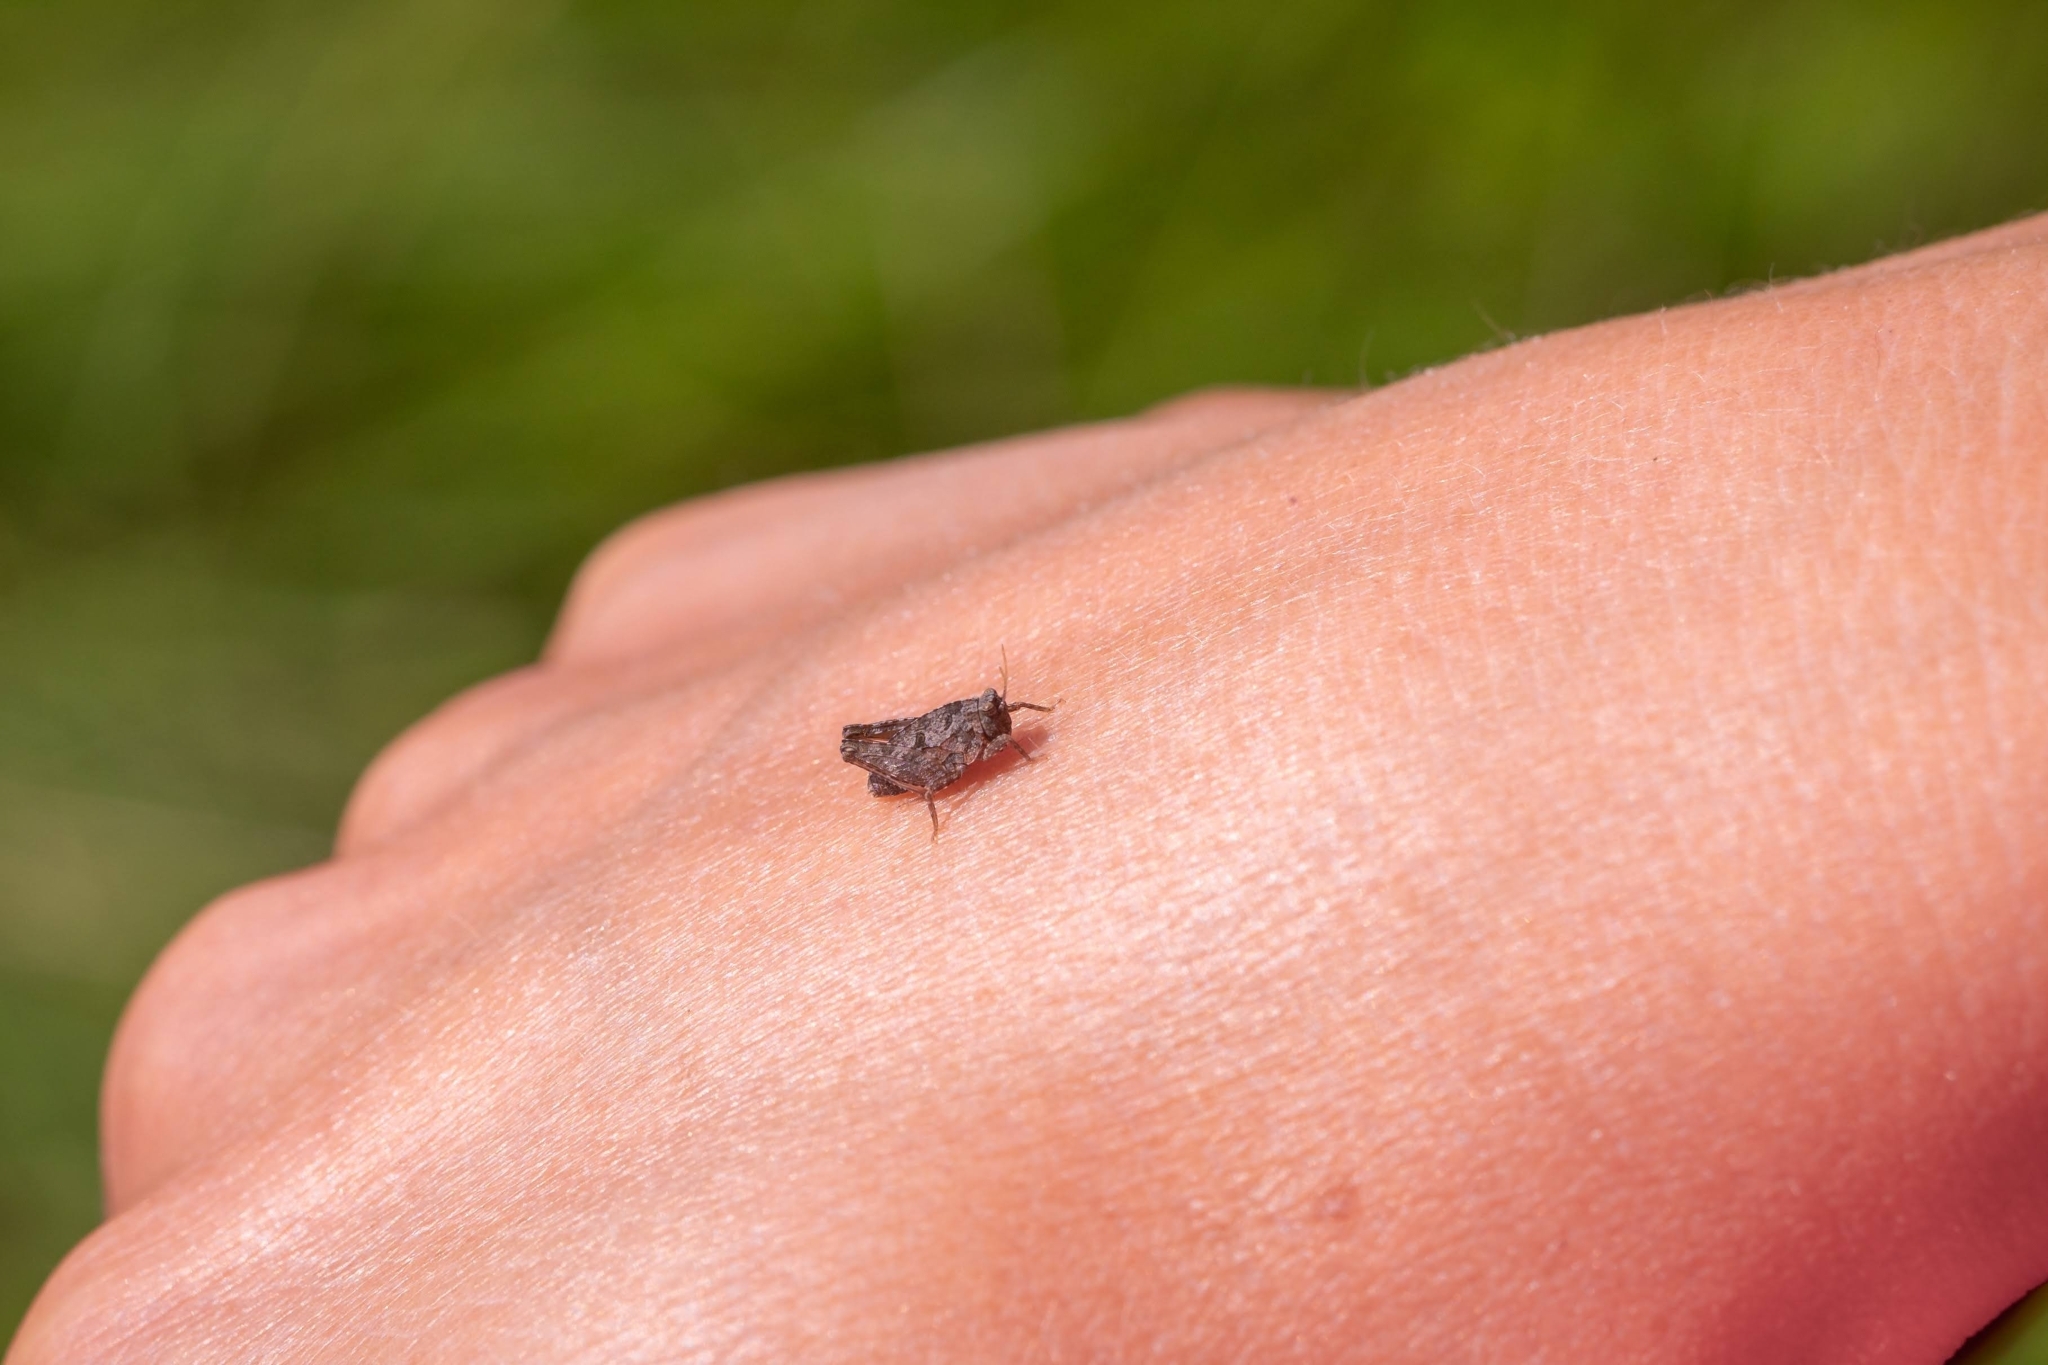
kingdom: Animalia
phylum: Arthropoda
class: Insecta
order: Orthoptera
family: Tetrigidae
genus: Tetrix
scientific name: Tetrix tenuicornis
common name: Long-horned groundhopper
